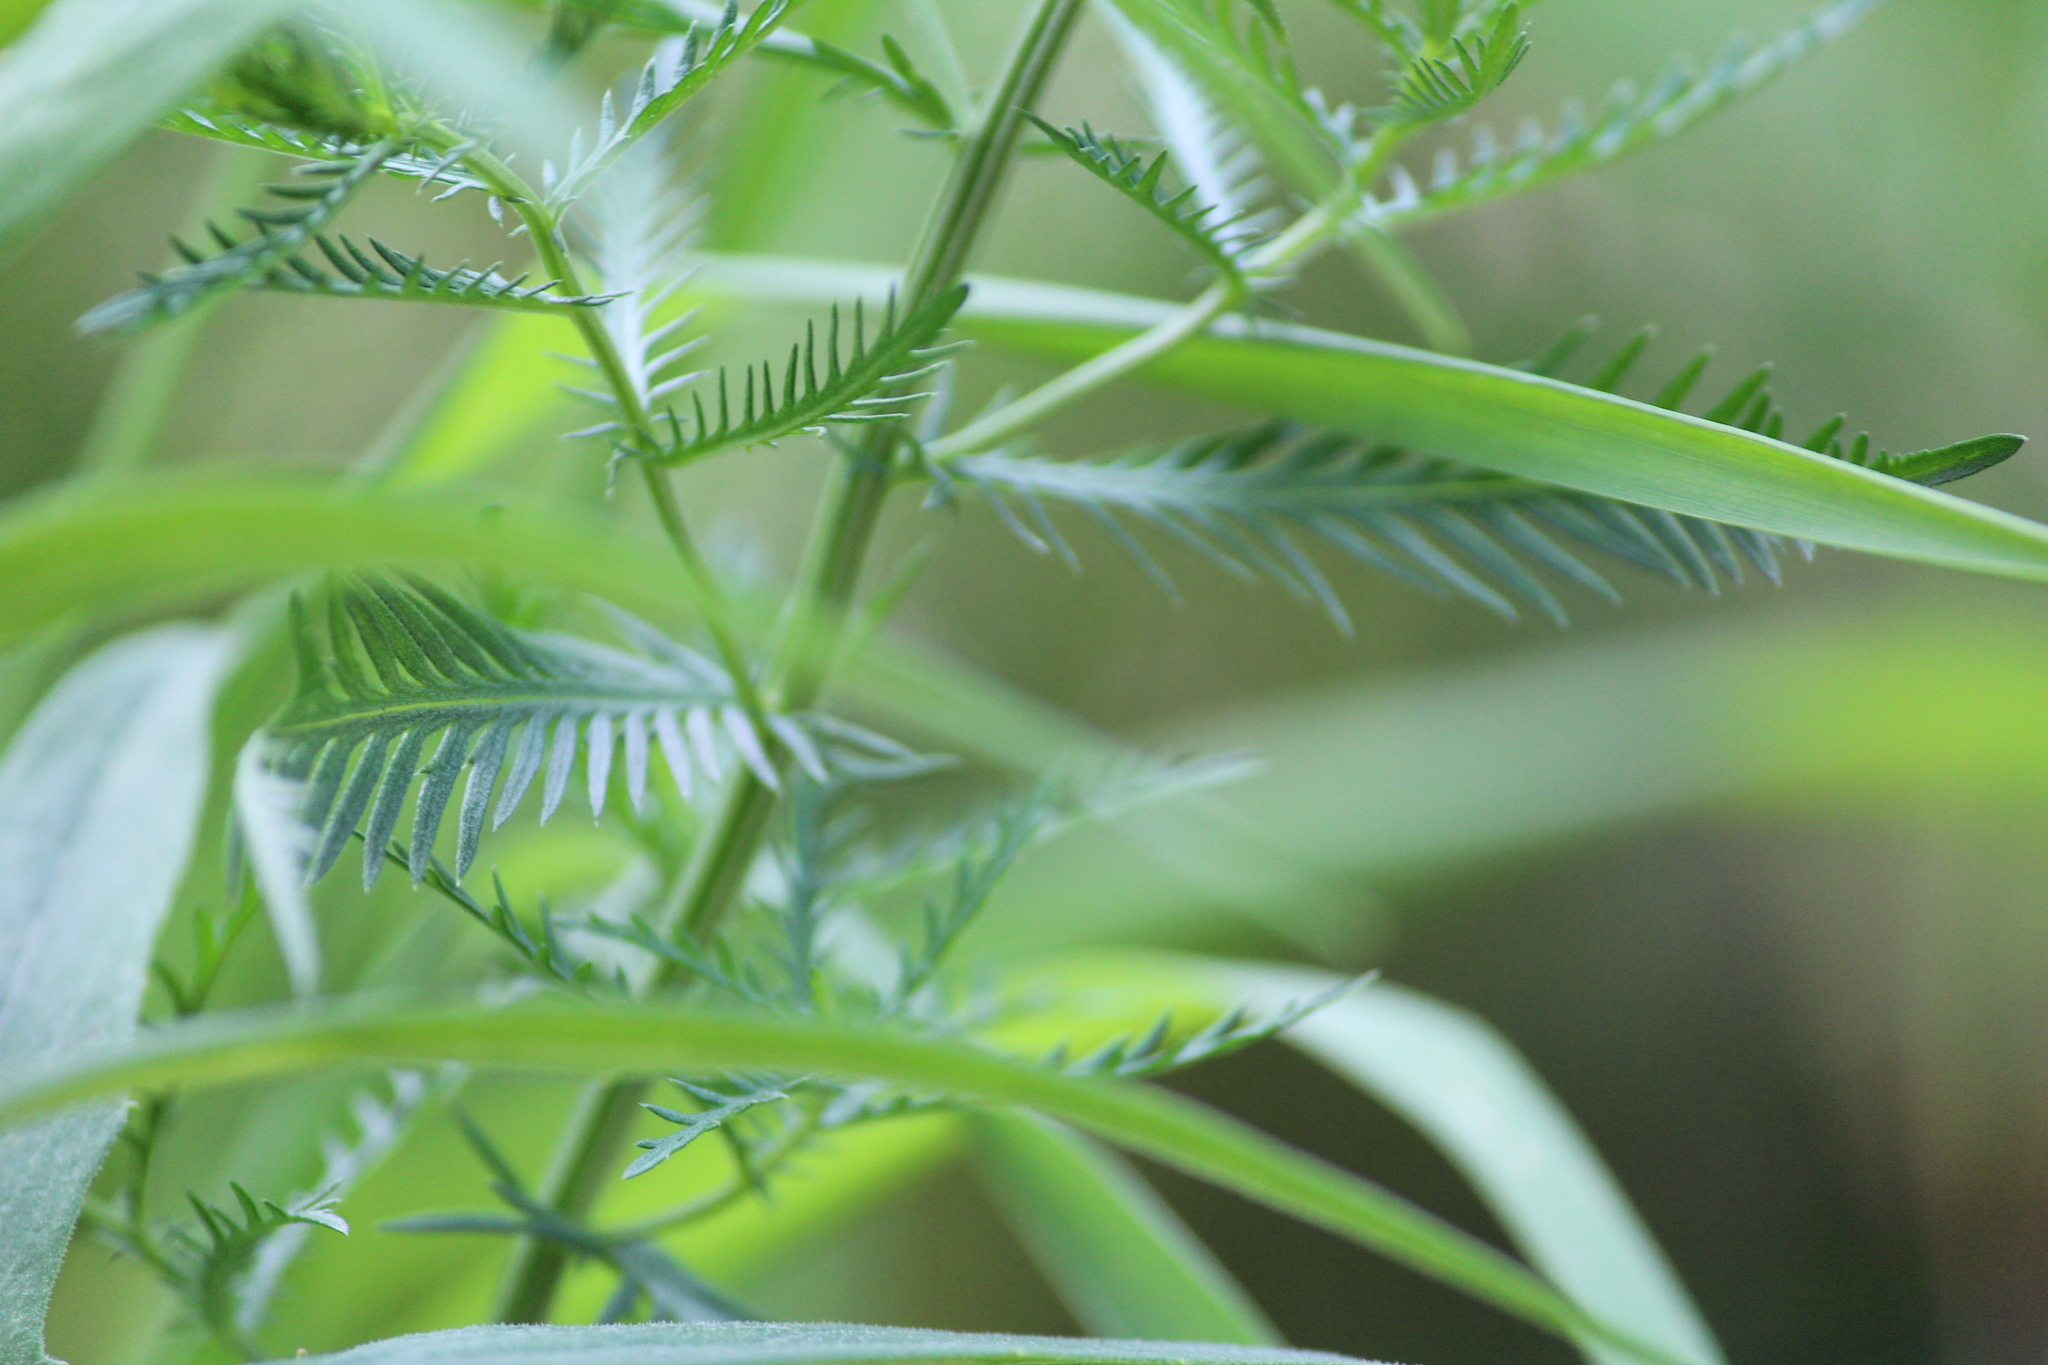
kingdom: Plantae
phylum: Tracheophyta
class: Magnoliopsida
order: Asterales
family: Asteraceae
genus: Achillea
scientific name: Achillea impatiens
